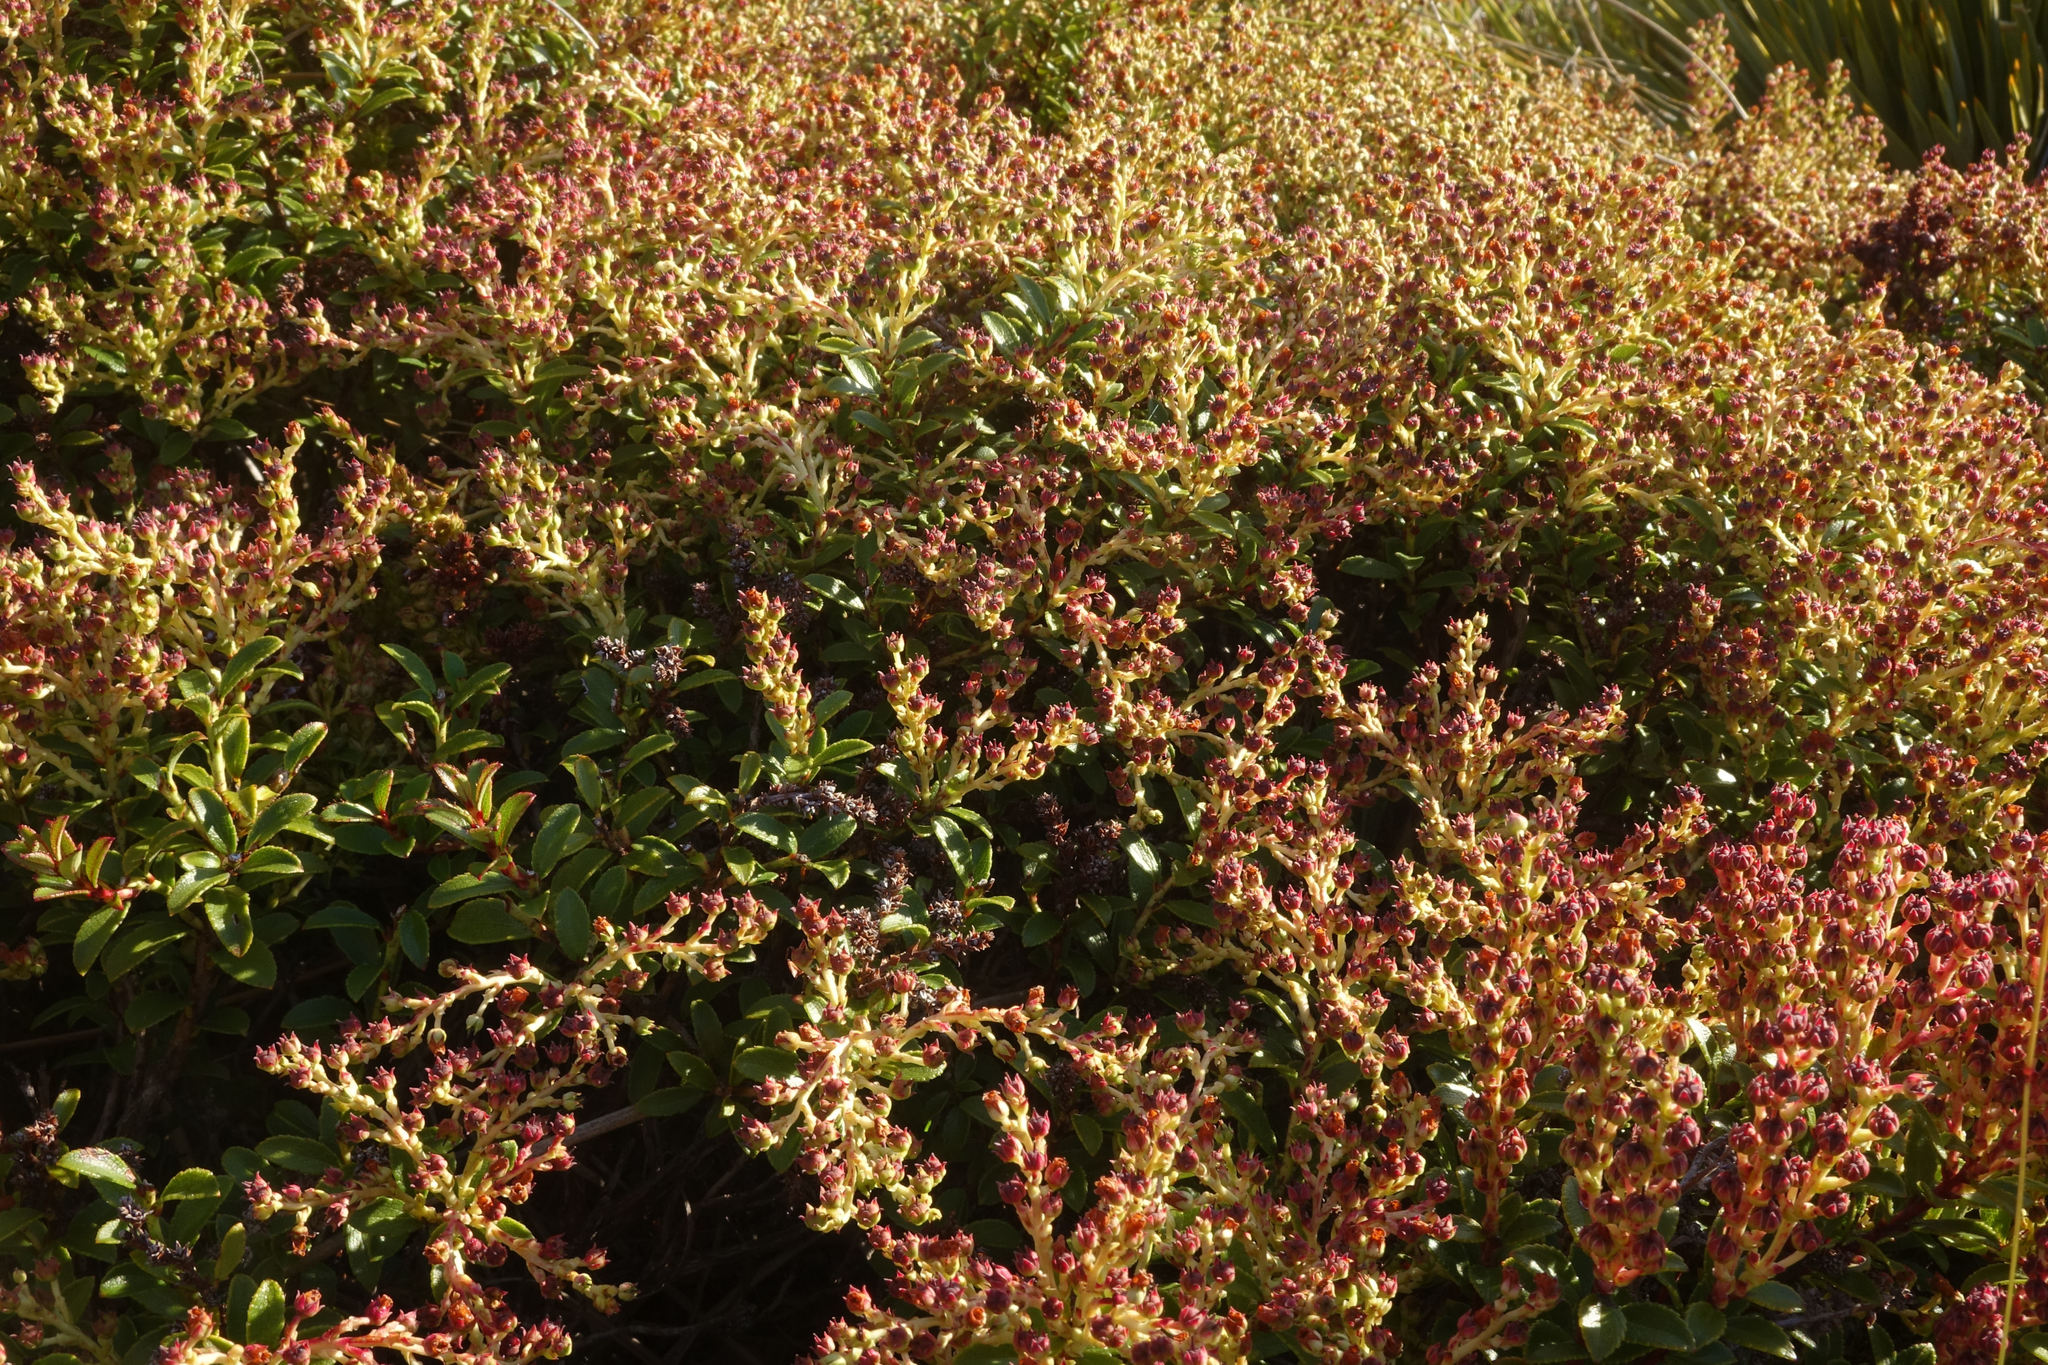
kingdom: Plantae
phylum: Tracheophyta
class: Magnoliopsida
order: Ericales
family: Ericaceae
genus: Gaultheria
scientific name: Gaultheria crassa
